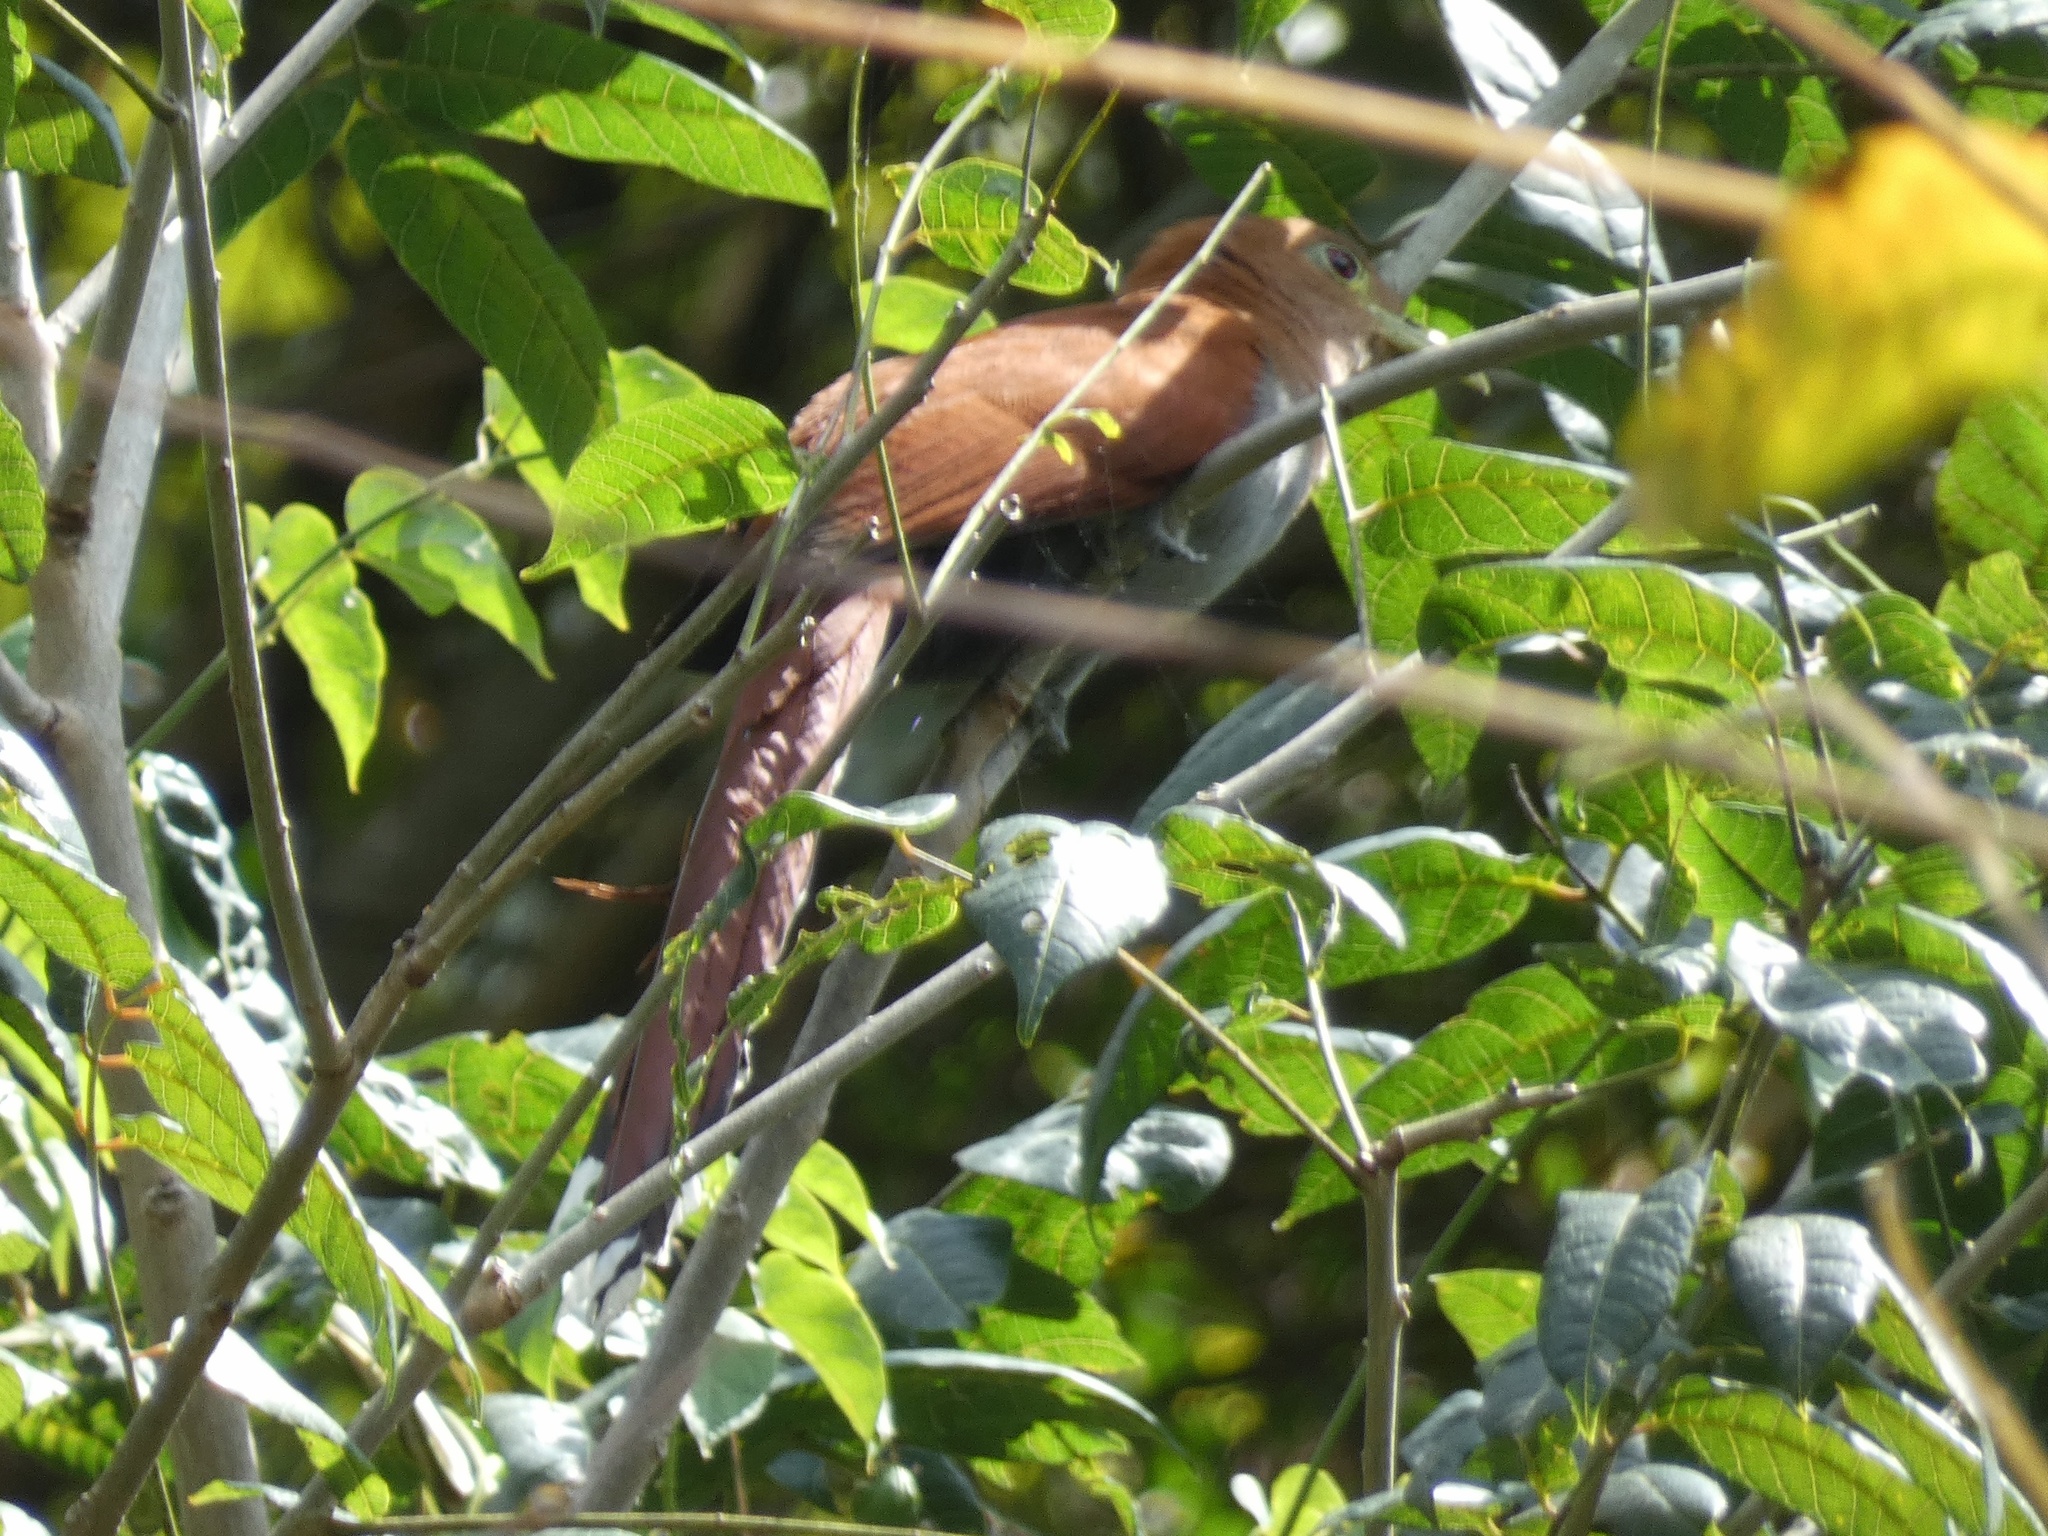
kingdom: Animalia
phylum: Chordata
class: Aves
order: Cuculiformes
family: Cuculidae
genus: Piaya
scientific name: Piaya cayana
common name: Squirrel cuckoo
